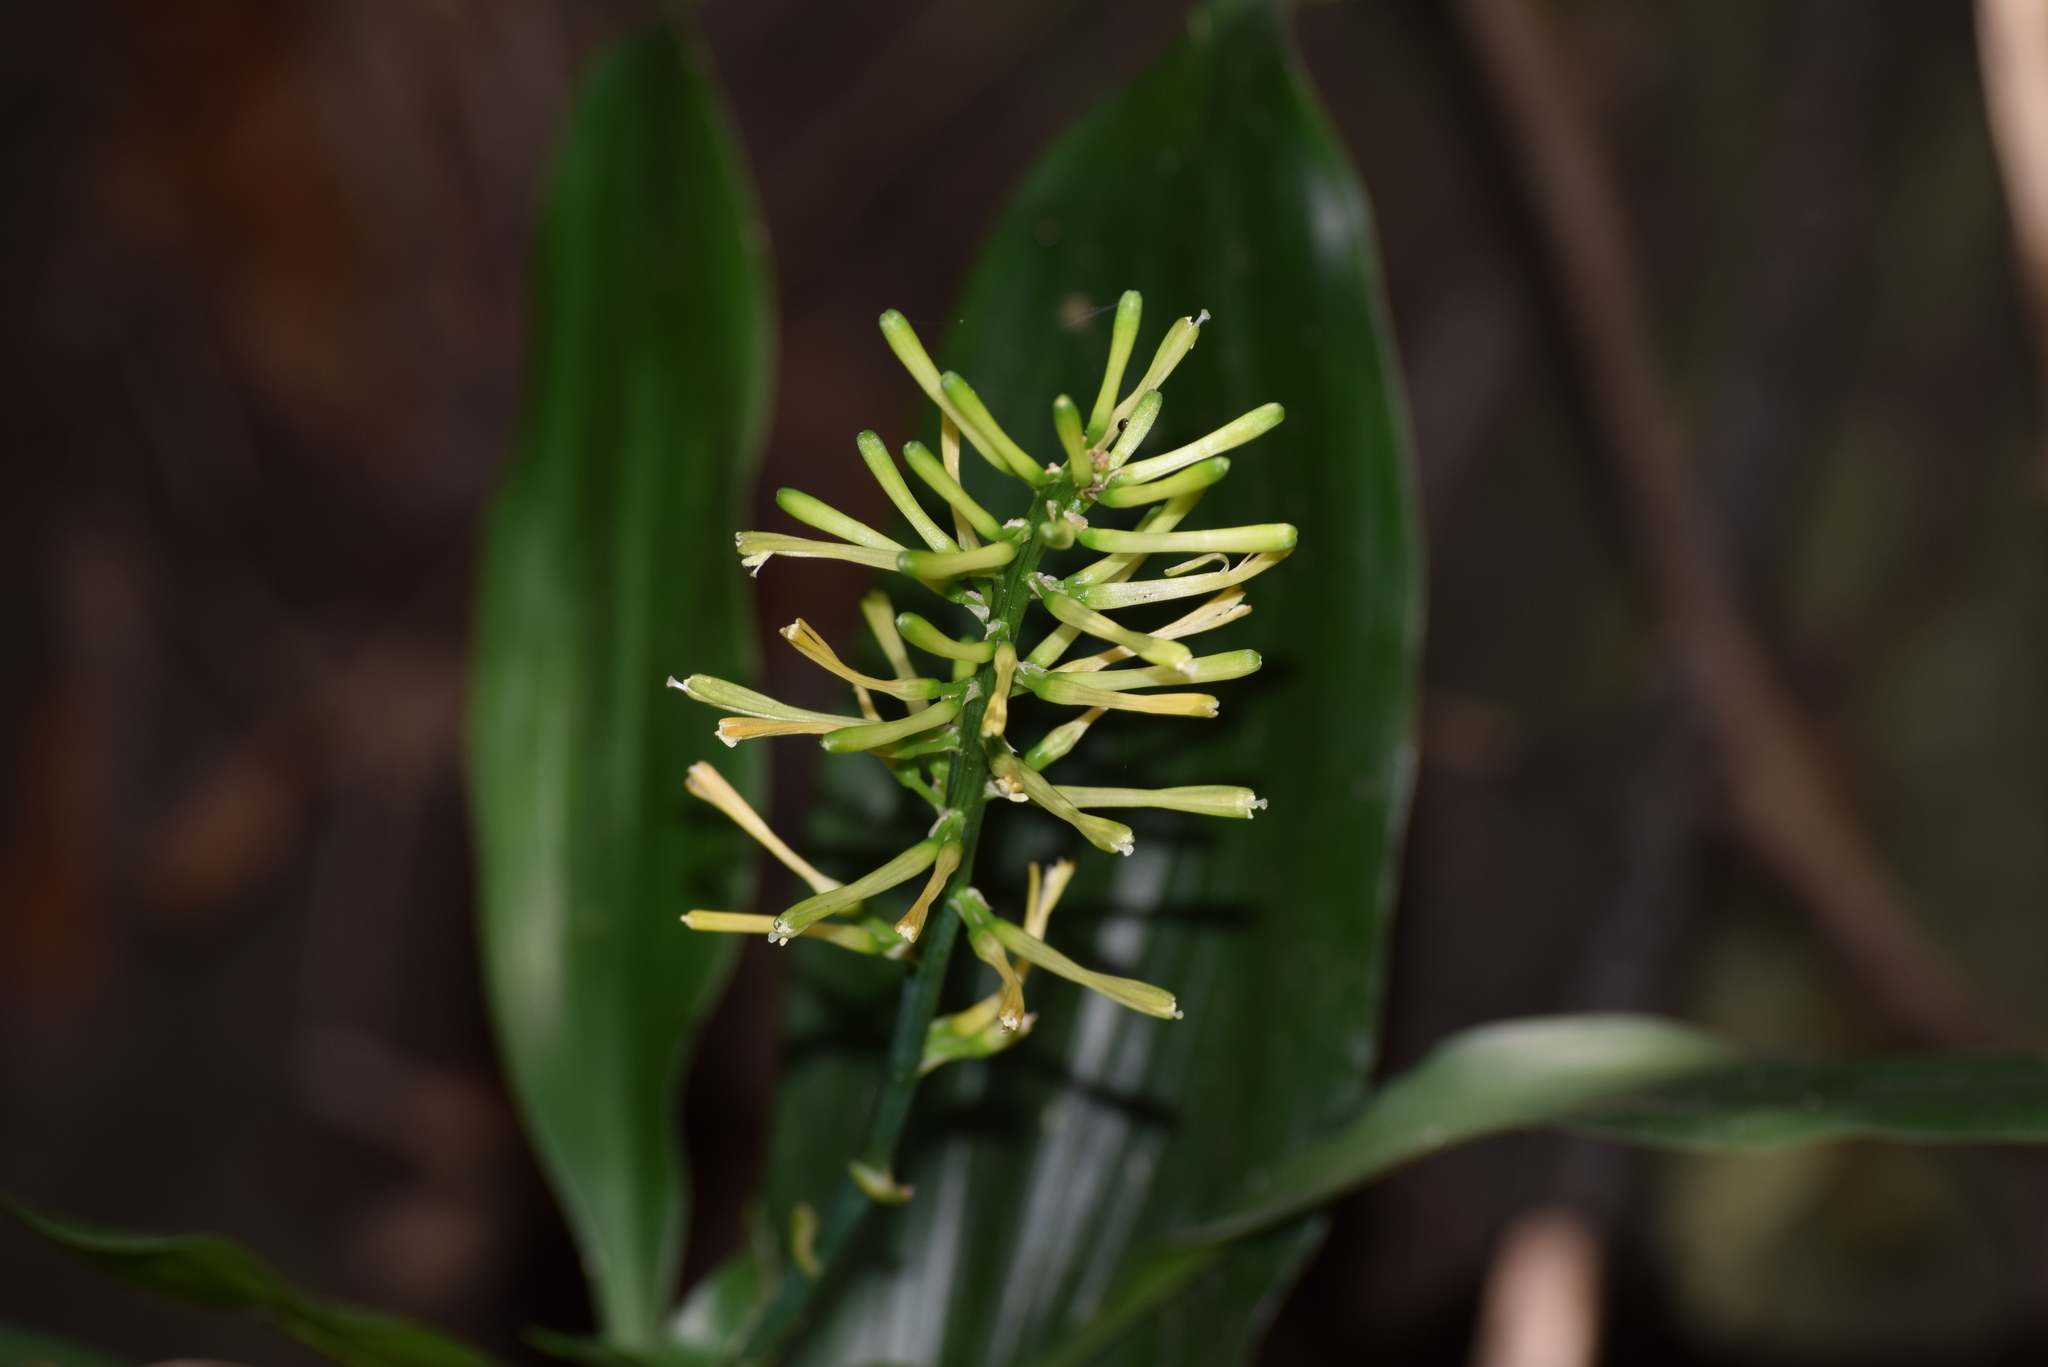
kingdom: Plantae
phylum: Tracheophyta
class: Liliopsida
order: Asparagales
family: Asparagaceae
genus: Dracaena
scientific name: Dracaena terniflora
